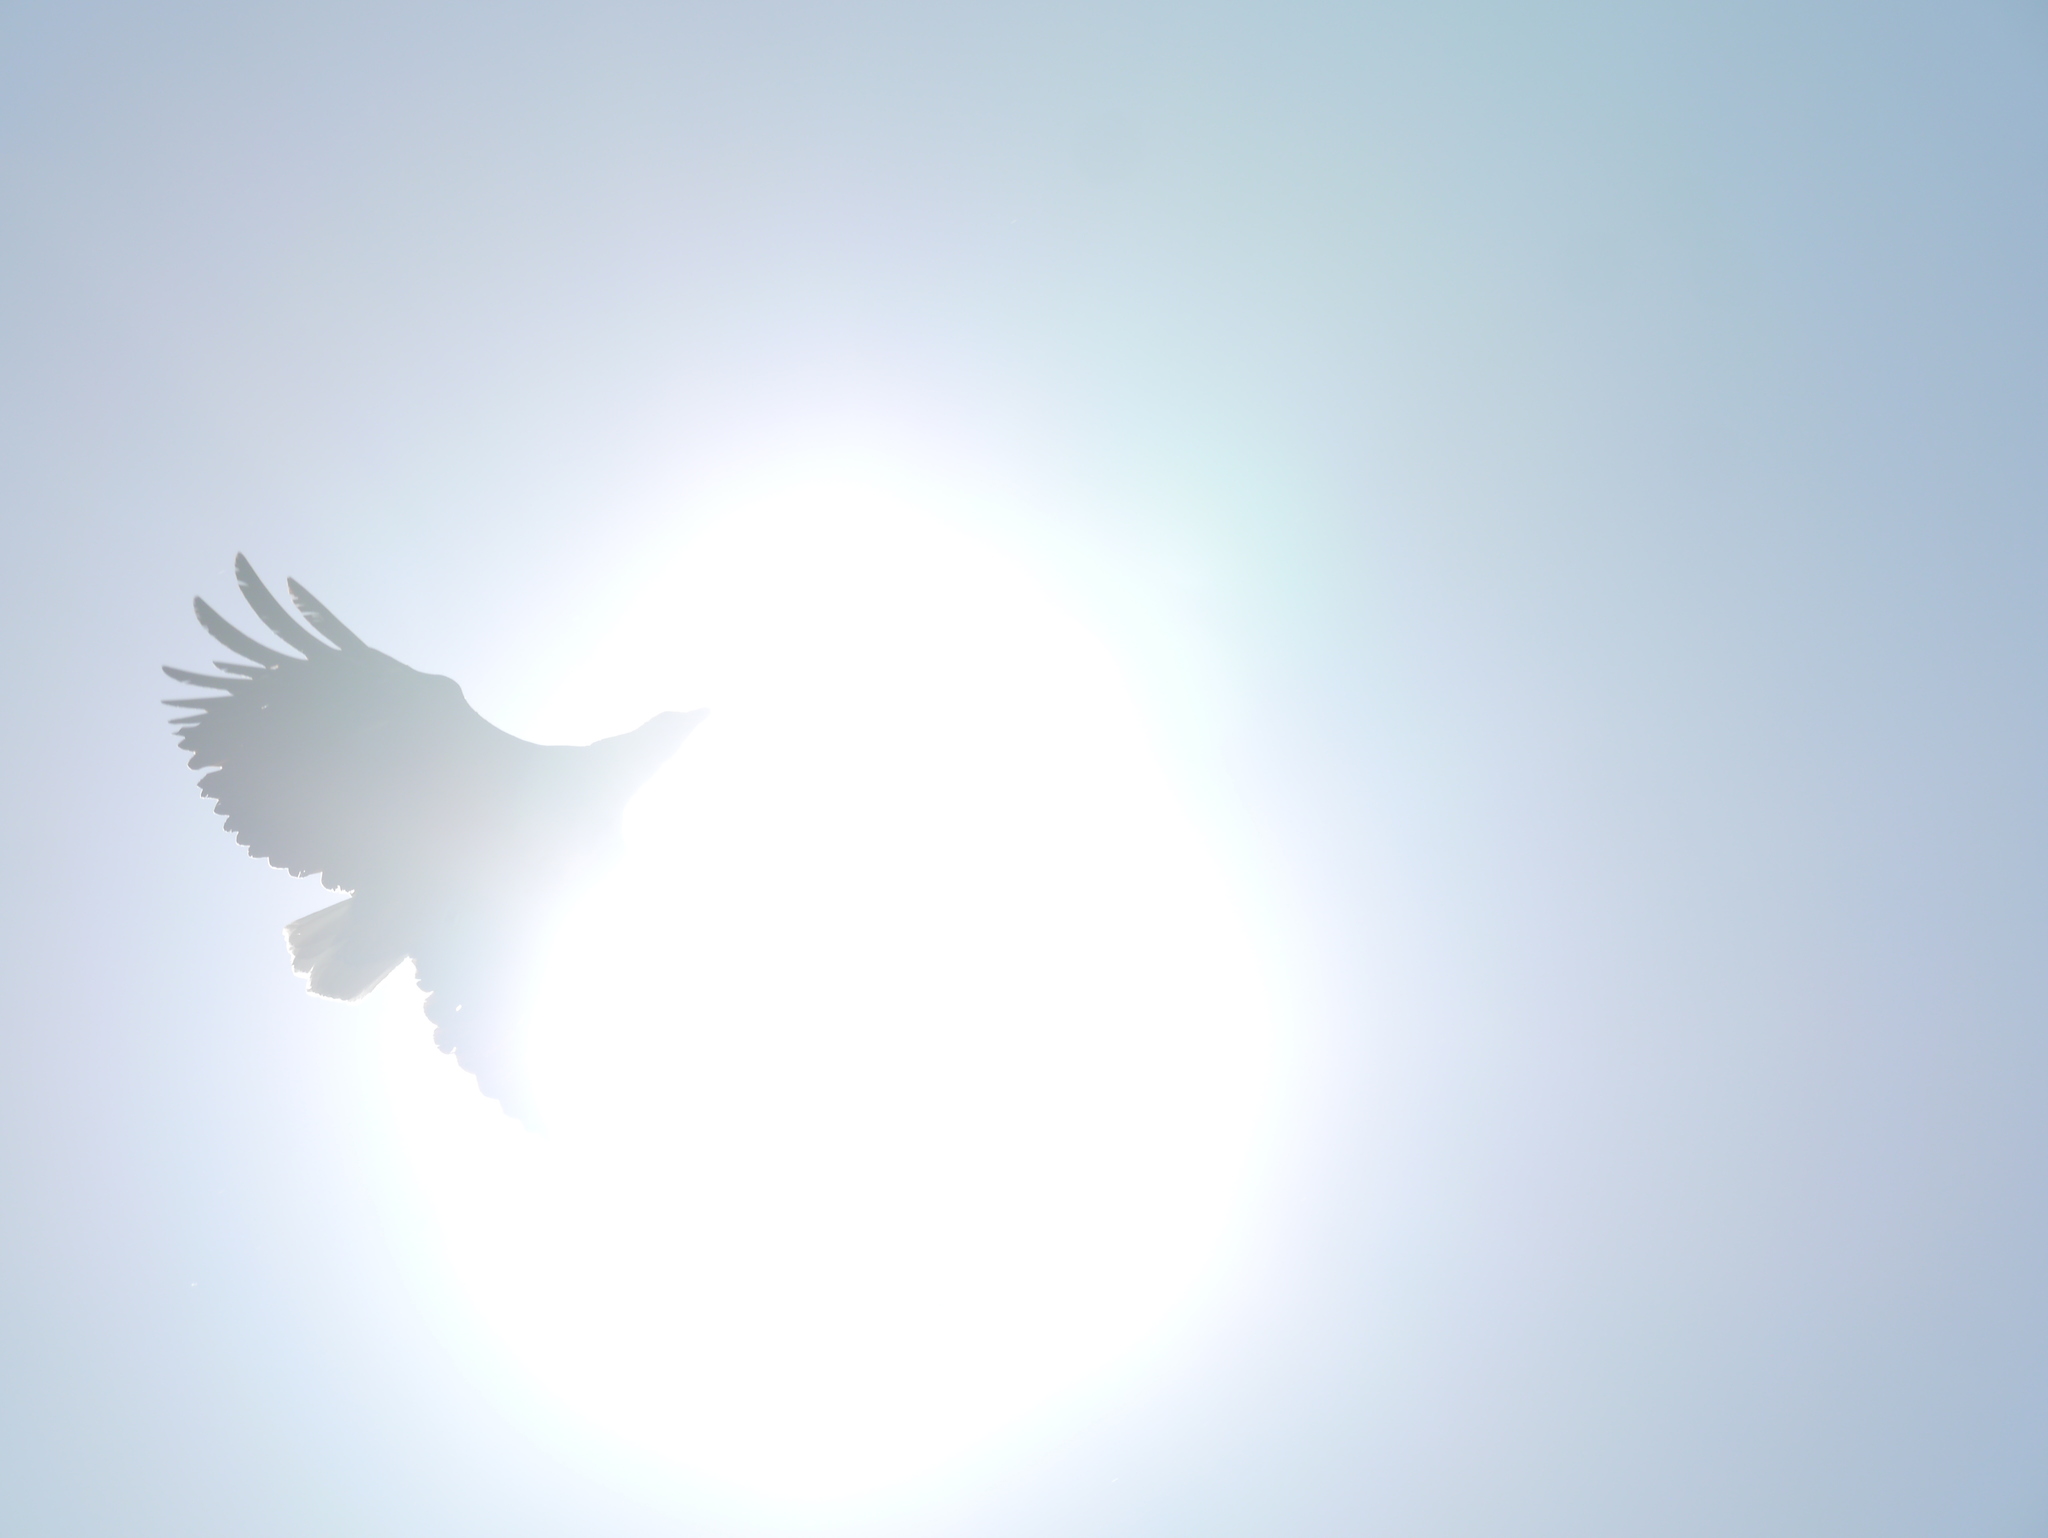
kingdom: Animalia
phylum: Chordata
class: Aves
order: Accipitriformes
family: Accipitridae
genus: Haliaeetus
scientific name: Haliaeetus vocifer
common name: African fish eagle
